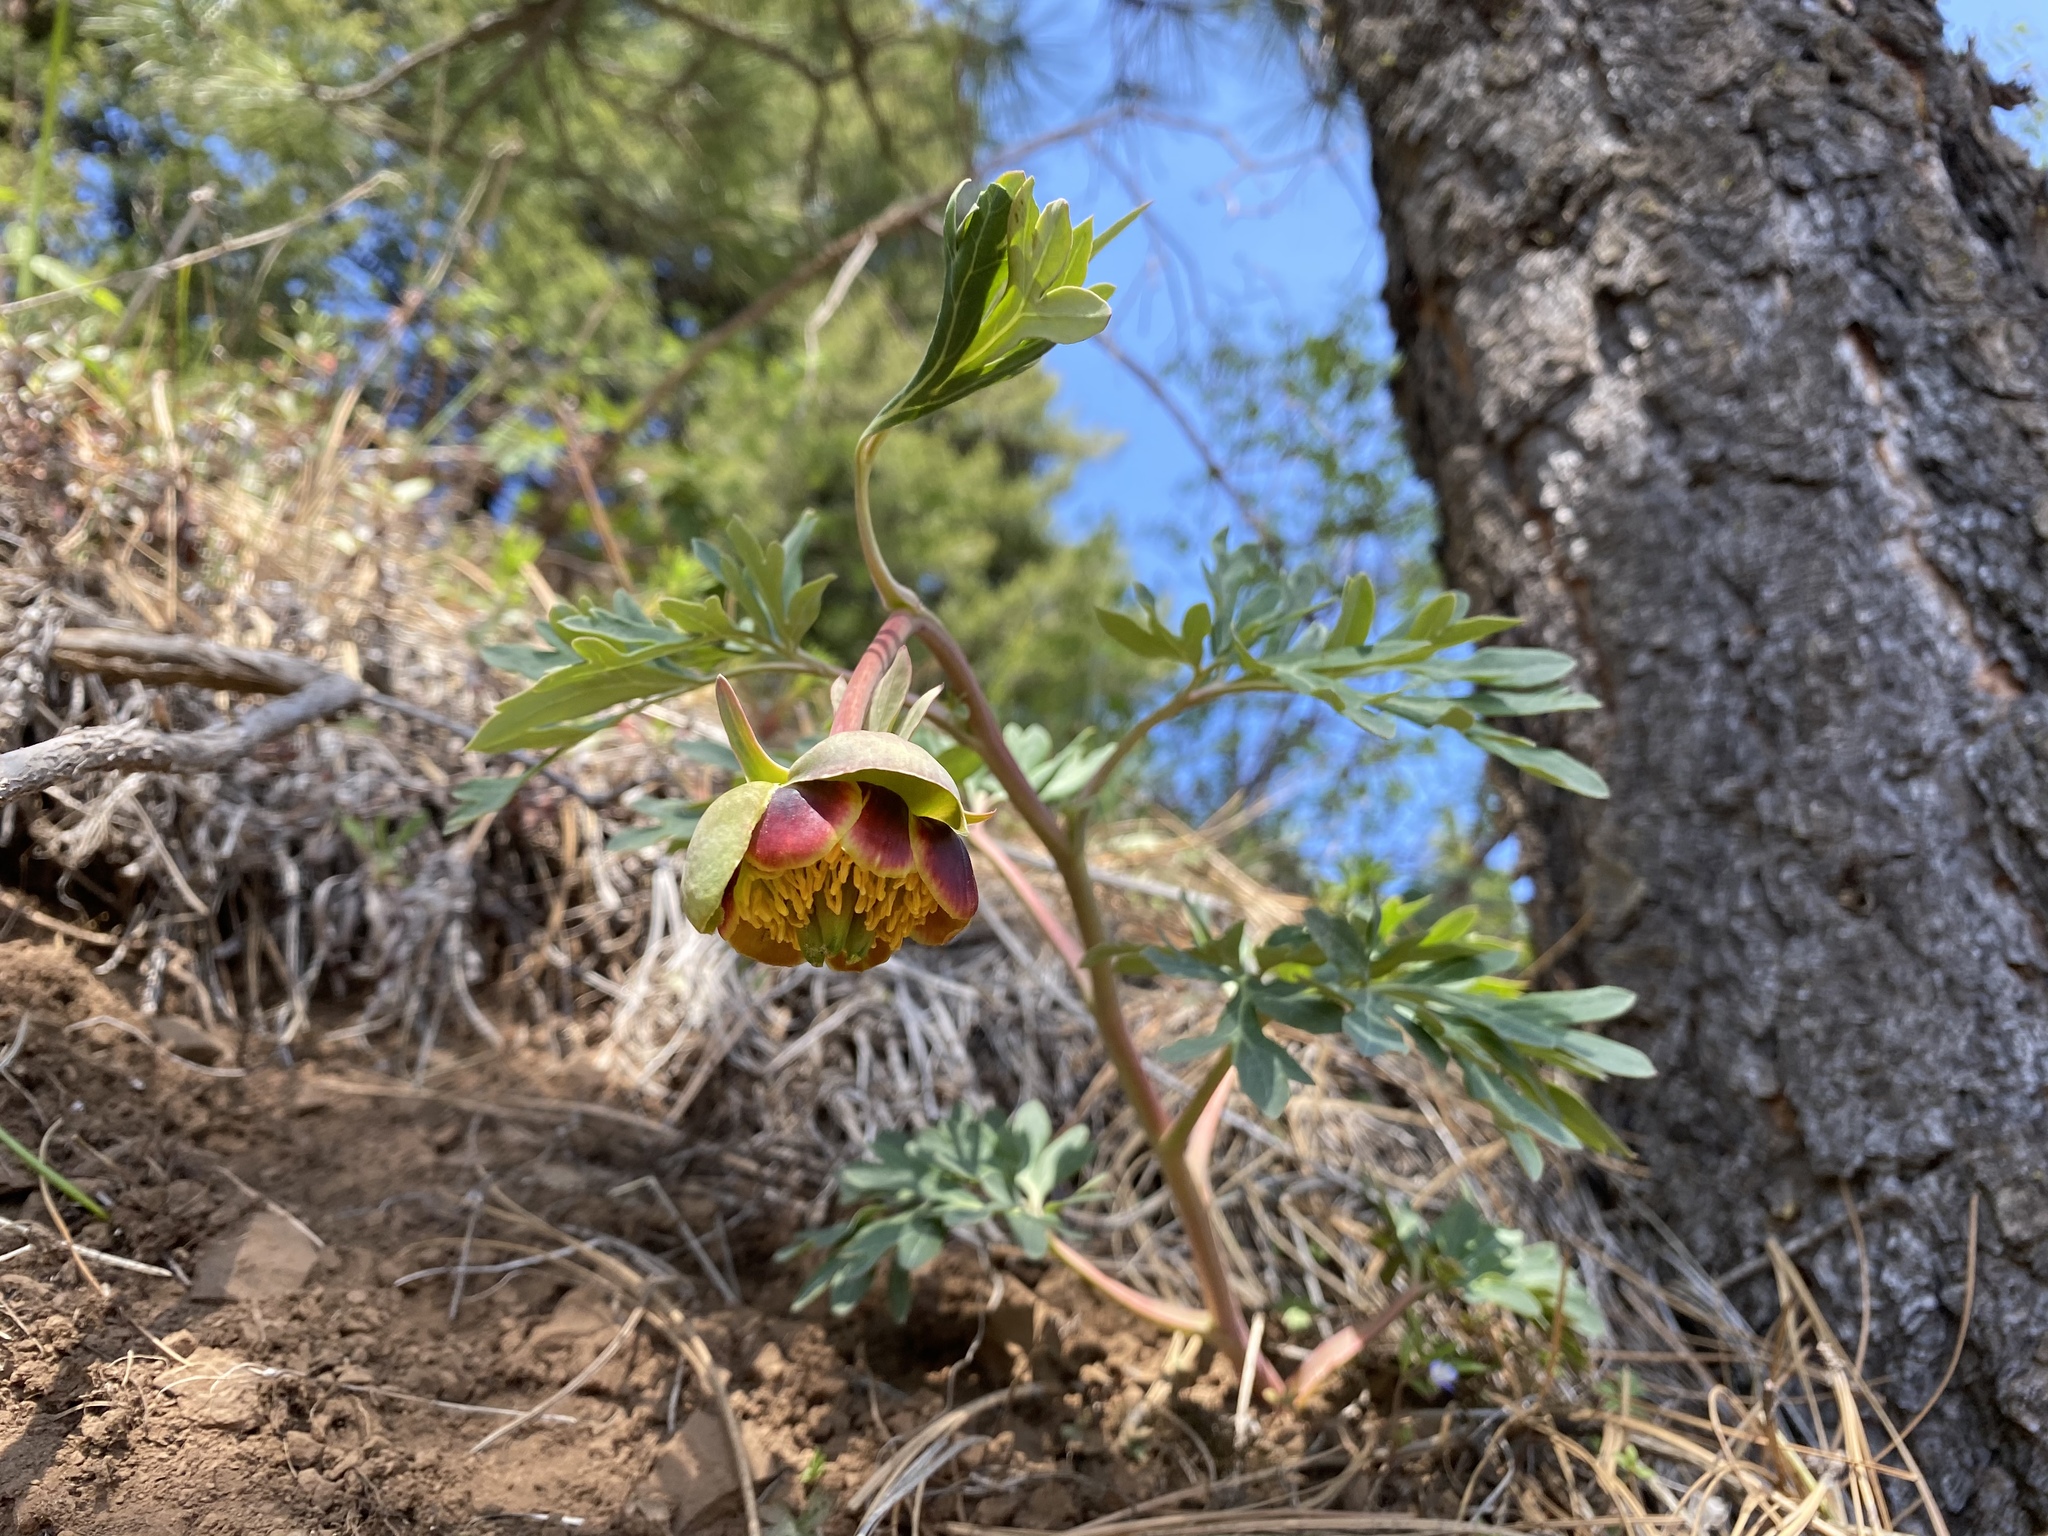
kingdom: Plantae
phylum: Tracheophyta
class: Magnoliopsida
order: Saxifragales
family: Paeoniaceae
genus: Paeonia
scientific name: Paeonia brownii
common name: Brown's peony
